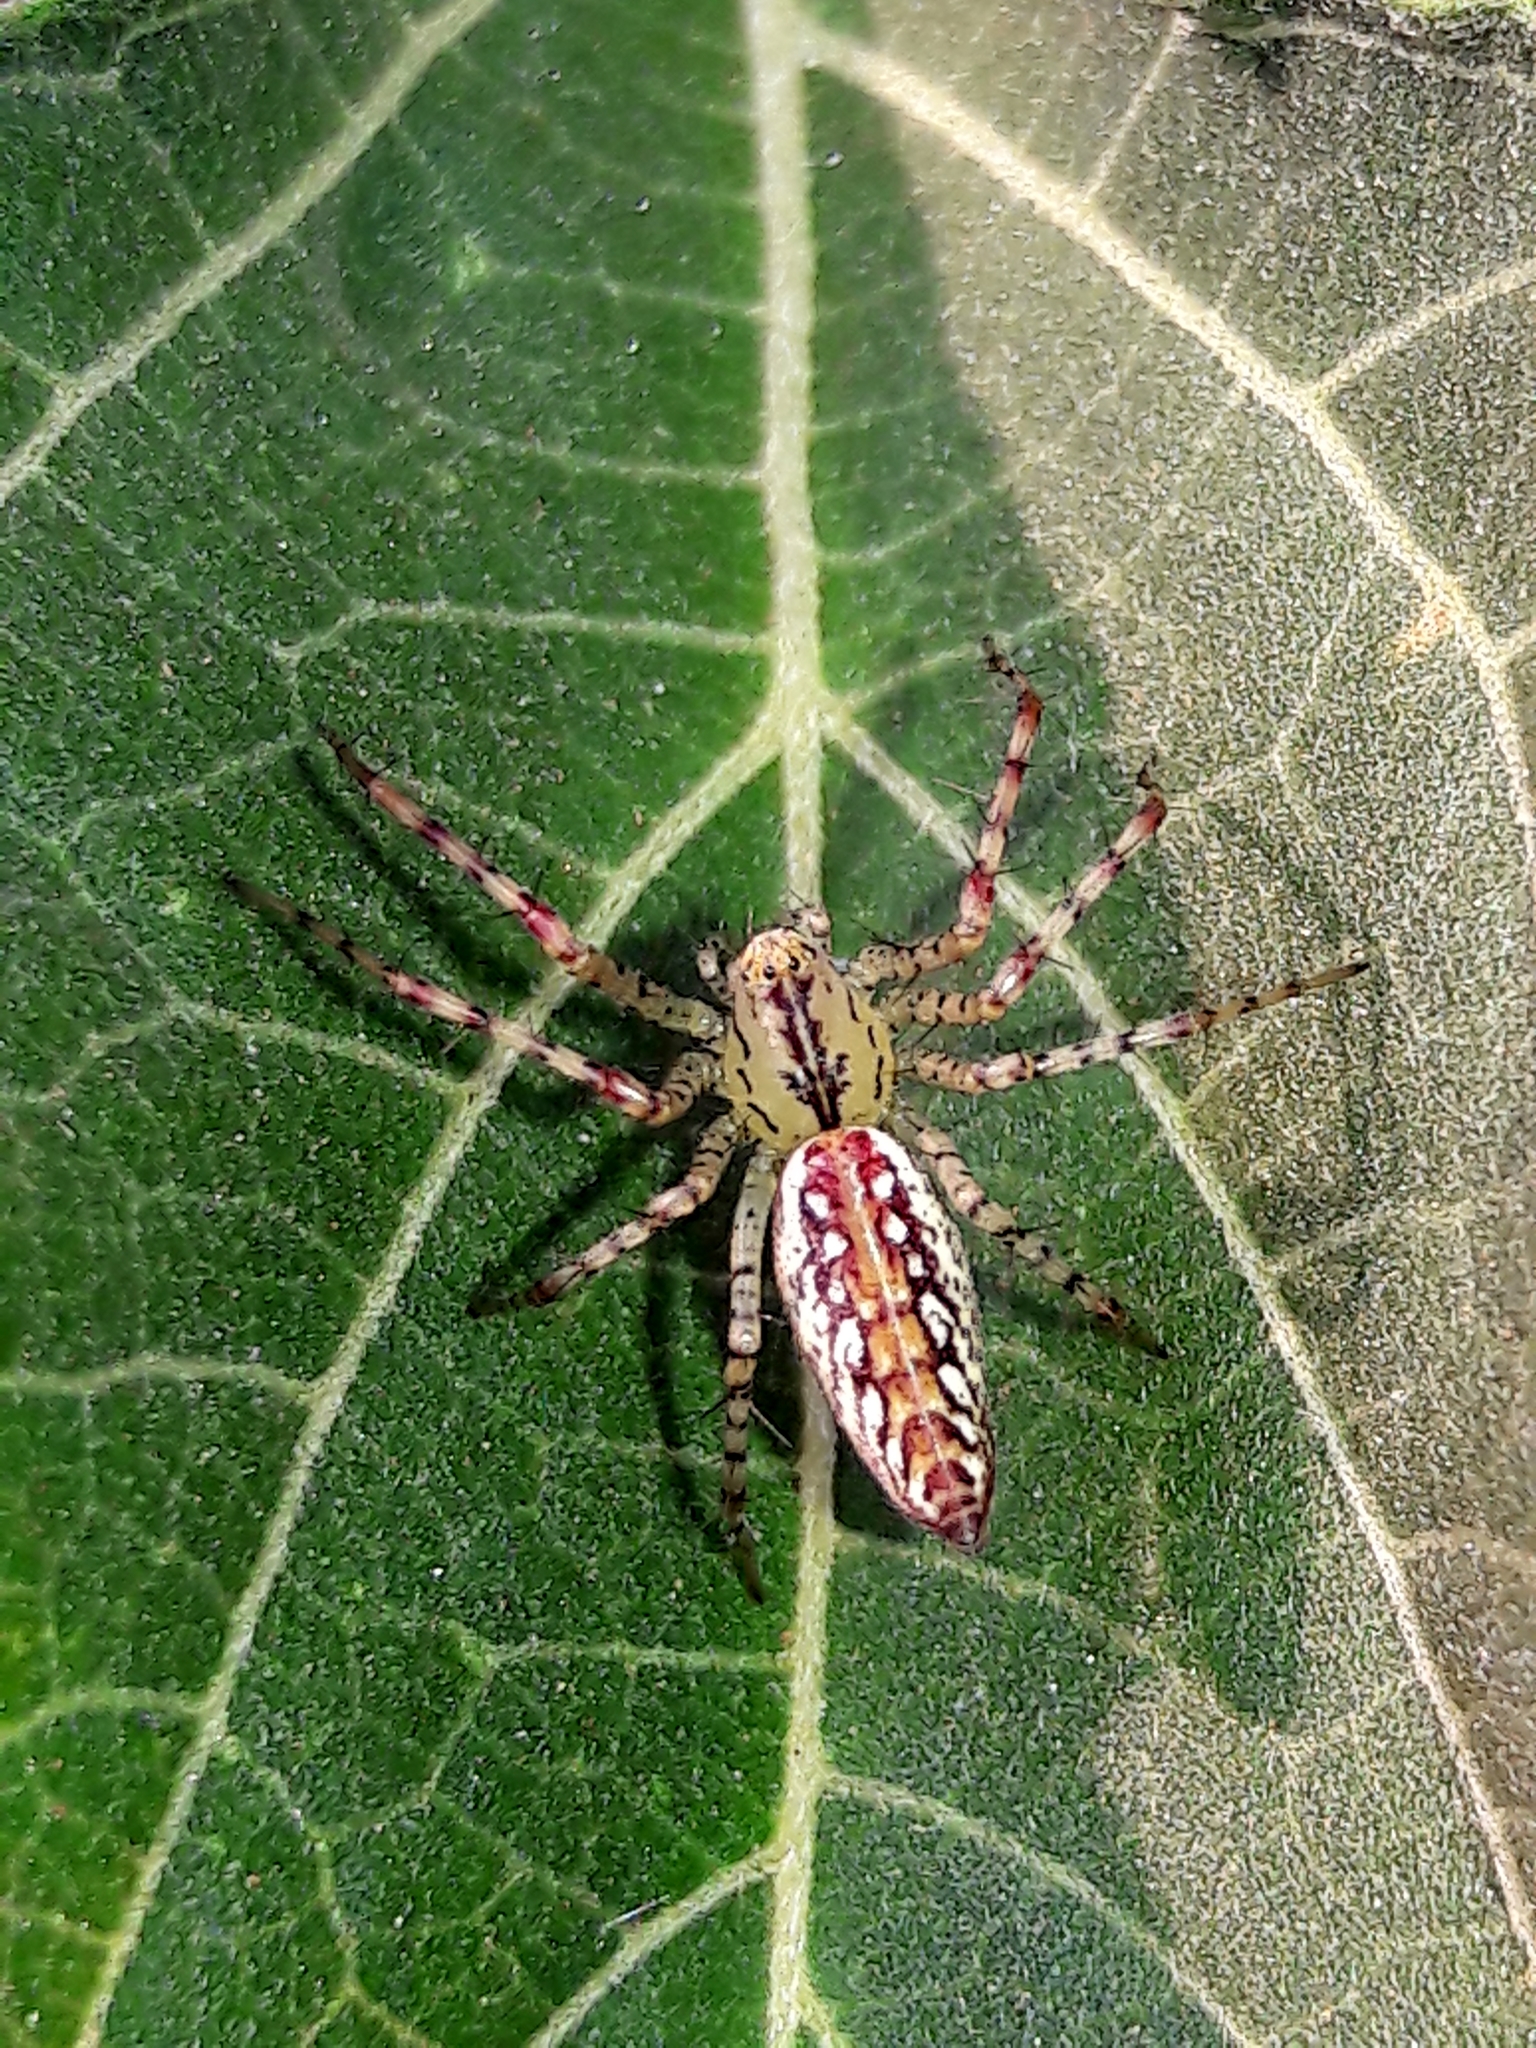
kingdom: Animalia
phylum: Arthropoda
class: Arachnida
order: Araneae
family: Oxyopidae
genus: Peucetia
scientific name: Peucetia flava
